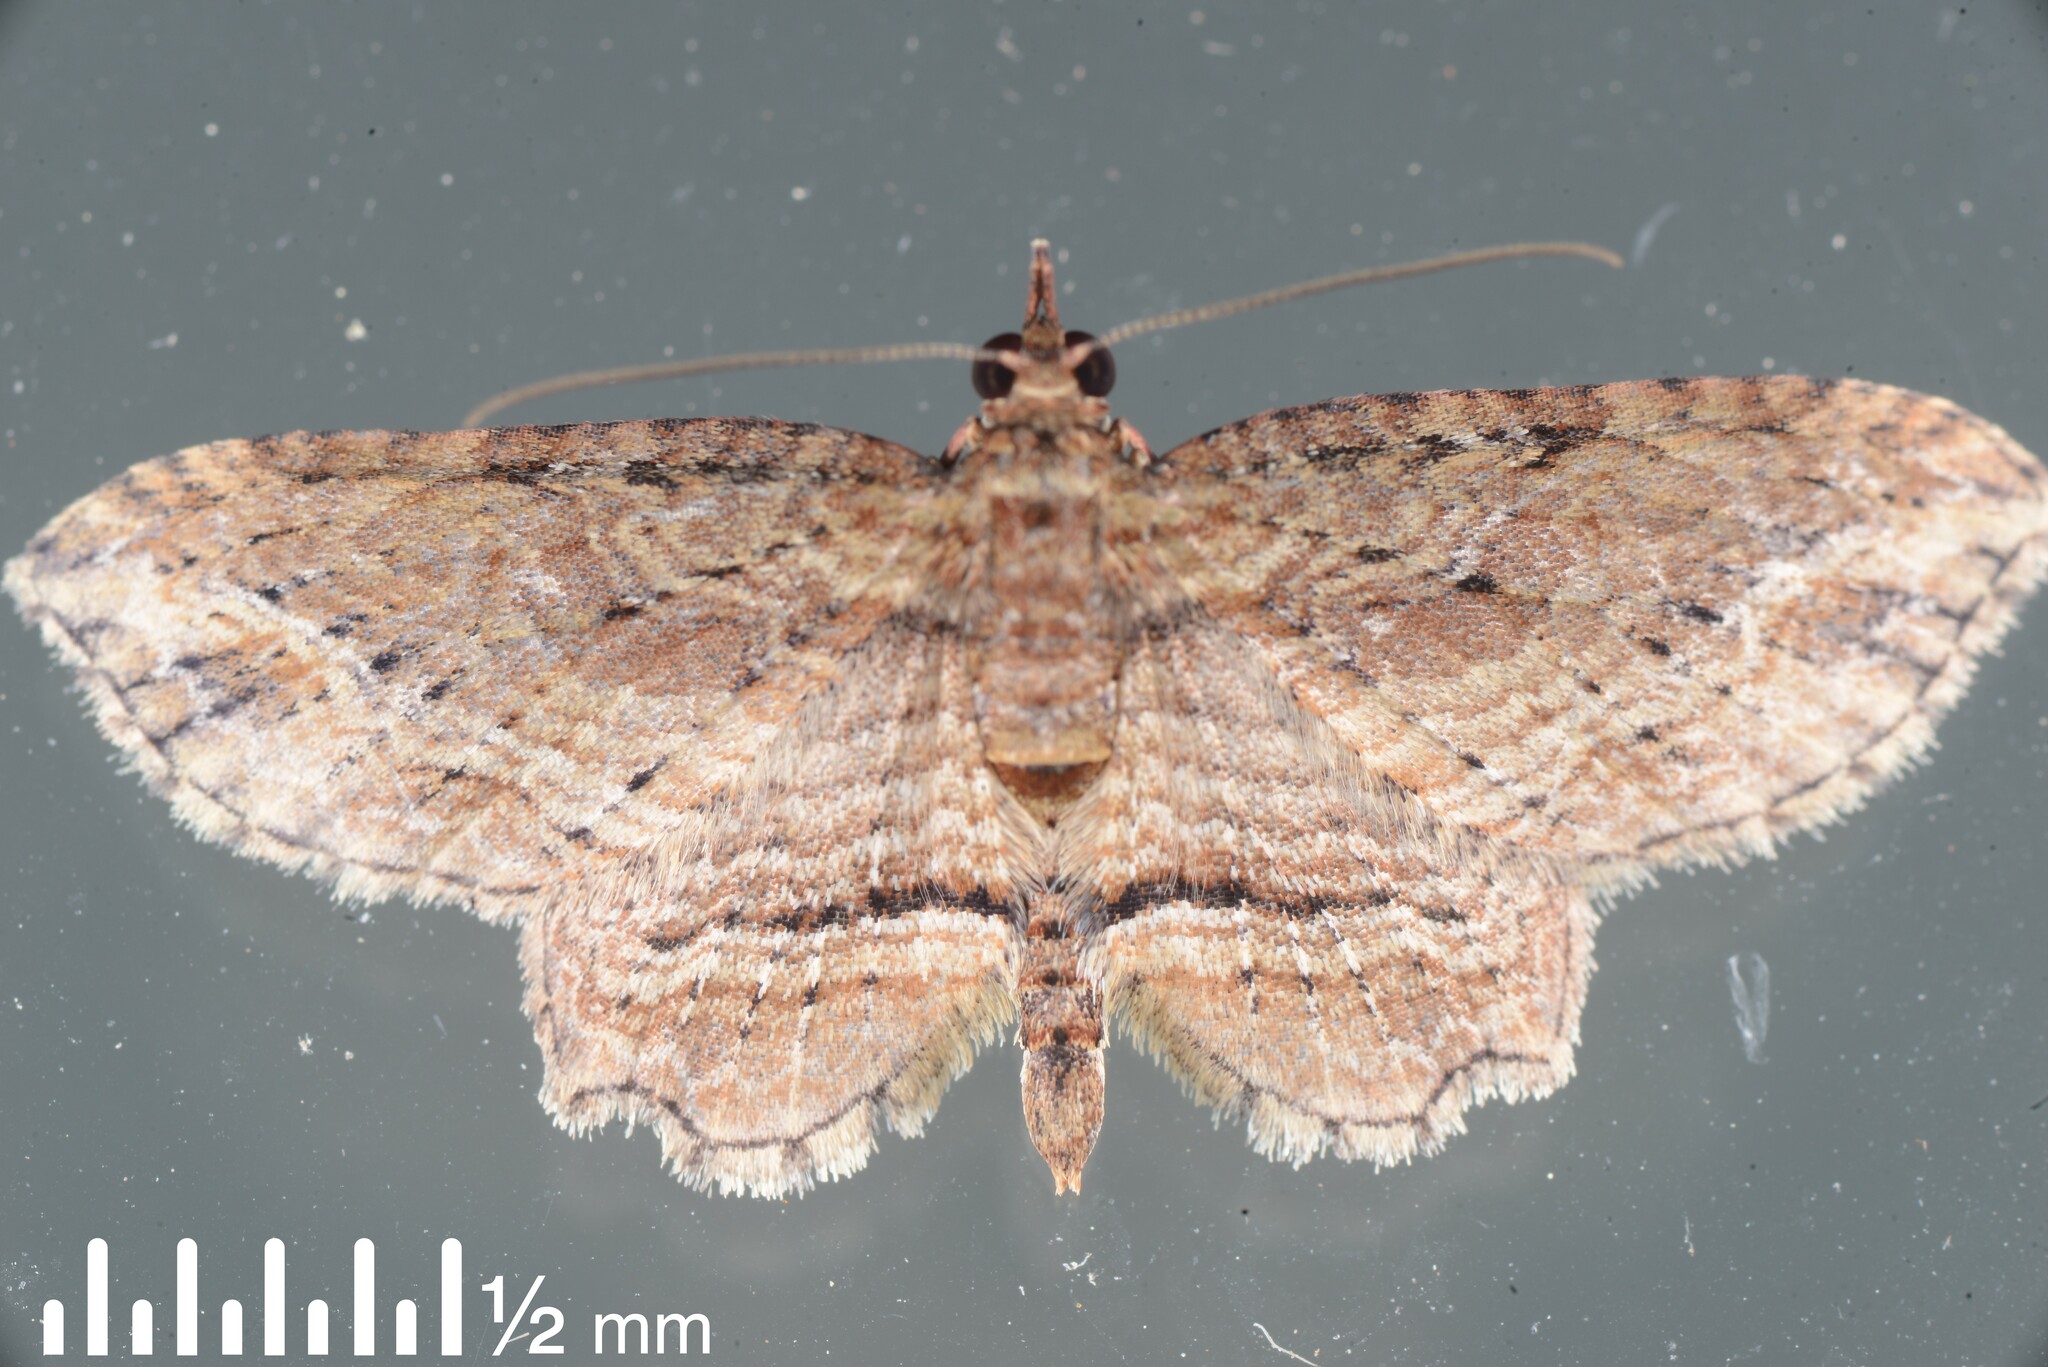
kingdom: Animalia
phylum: Arthropoda
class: Insecta
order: Lepidoptera
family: Geometridae
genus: Chloroclystis
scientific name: Chloroclystis filata
